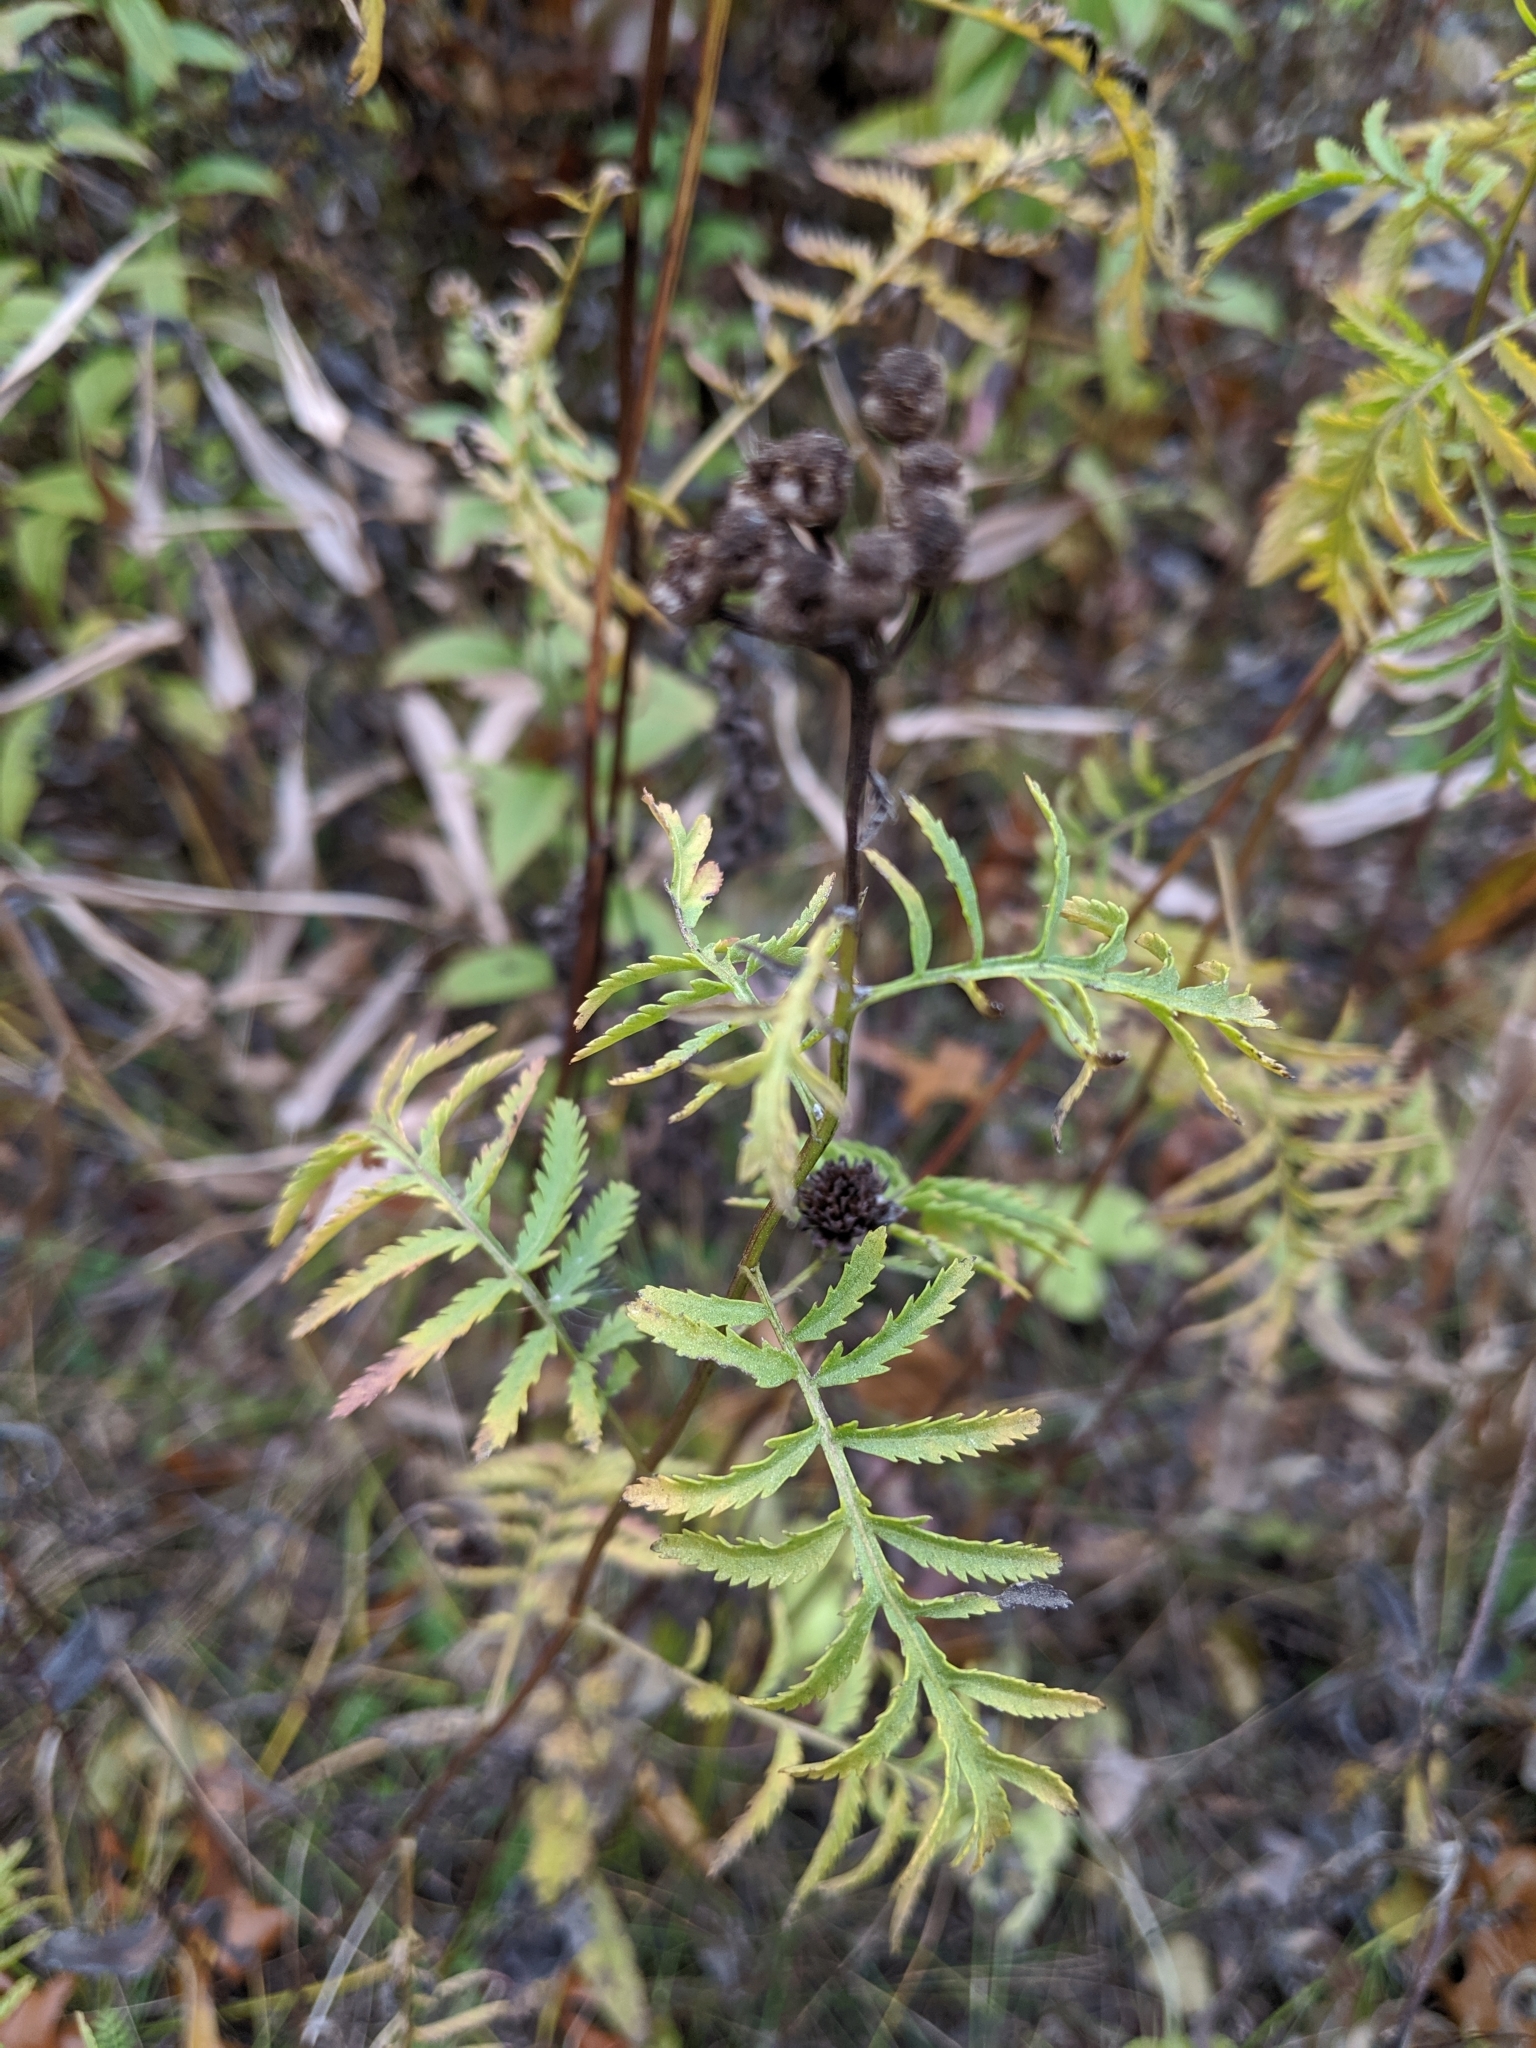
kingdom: Plantae
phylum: Tracheophyta
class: Magnoliopsida
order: Asterales
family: Asteraceae
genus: Tanacetum
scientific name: Tanacetum vulgare
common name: Common tansy
